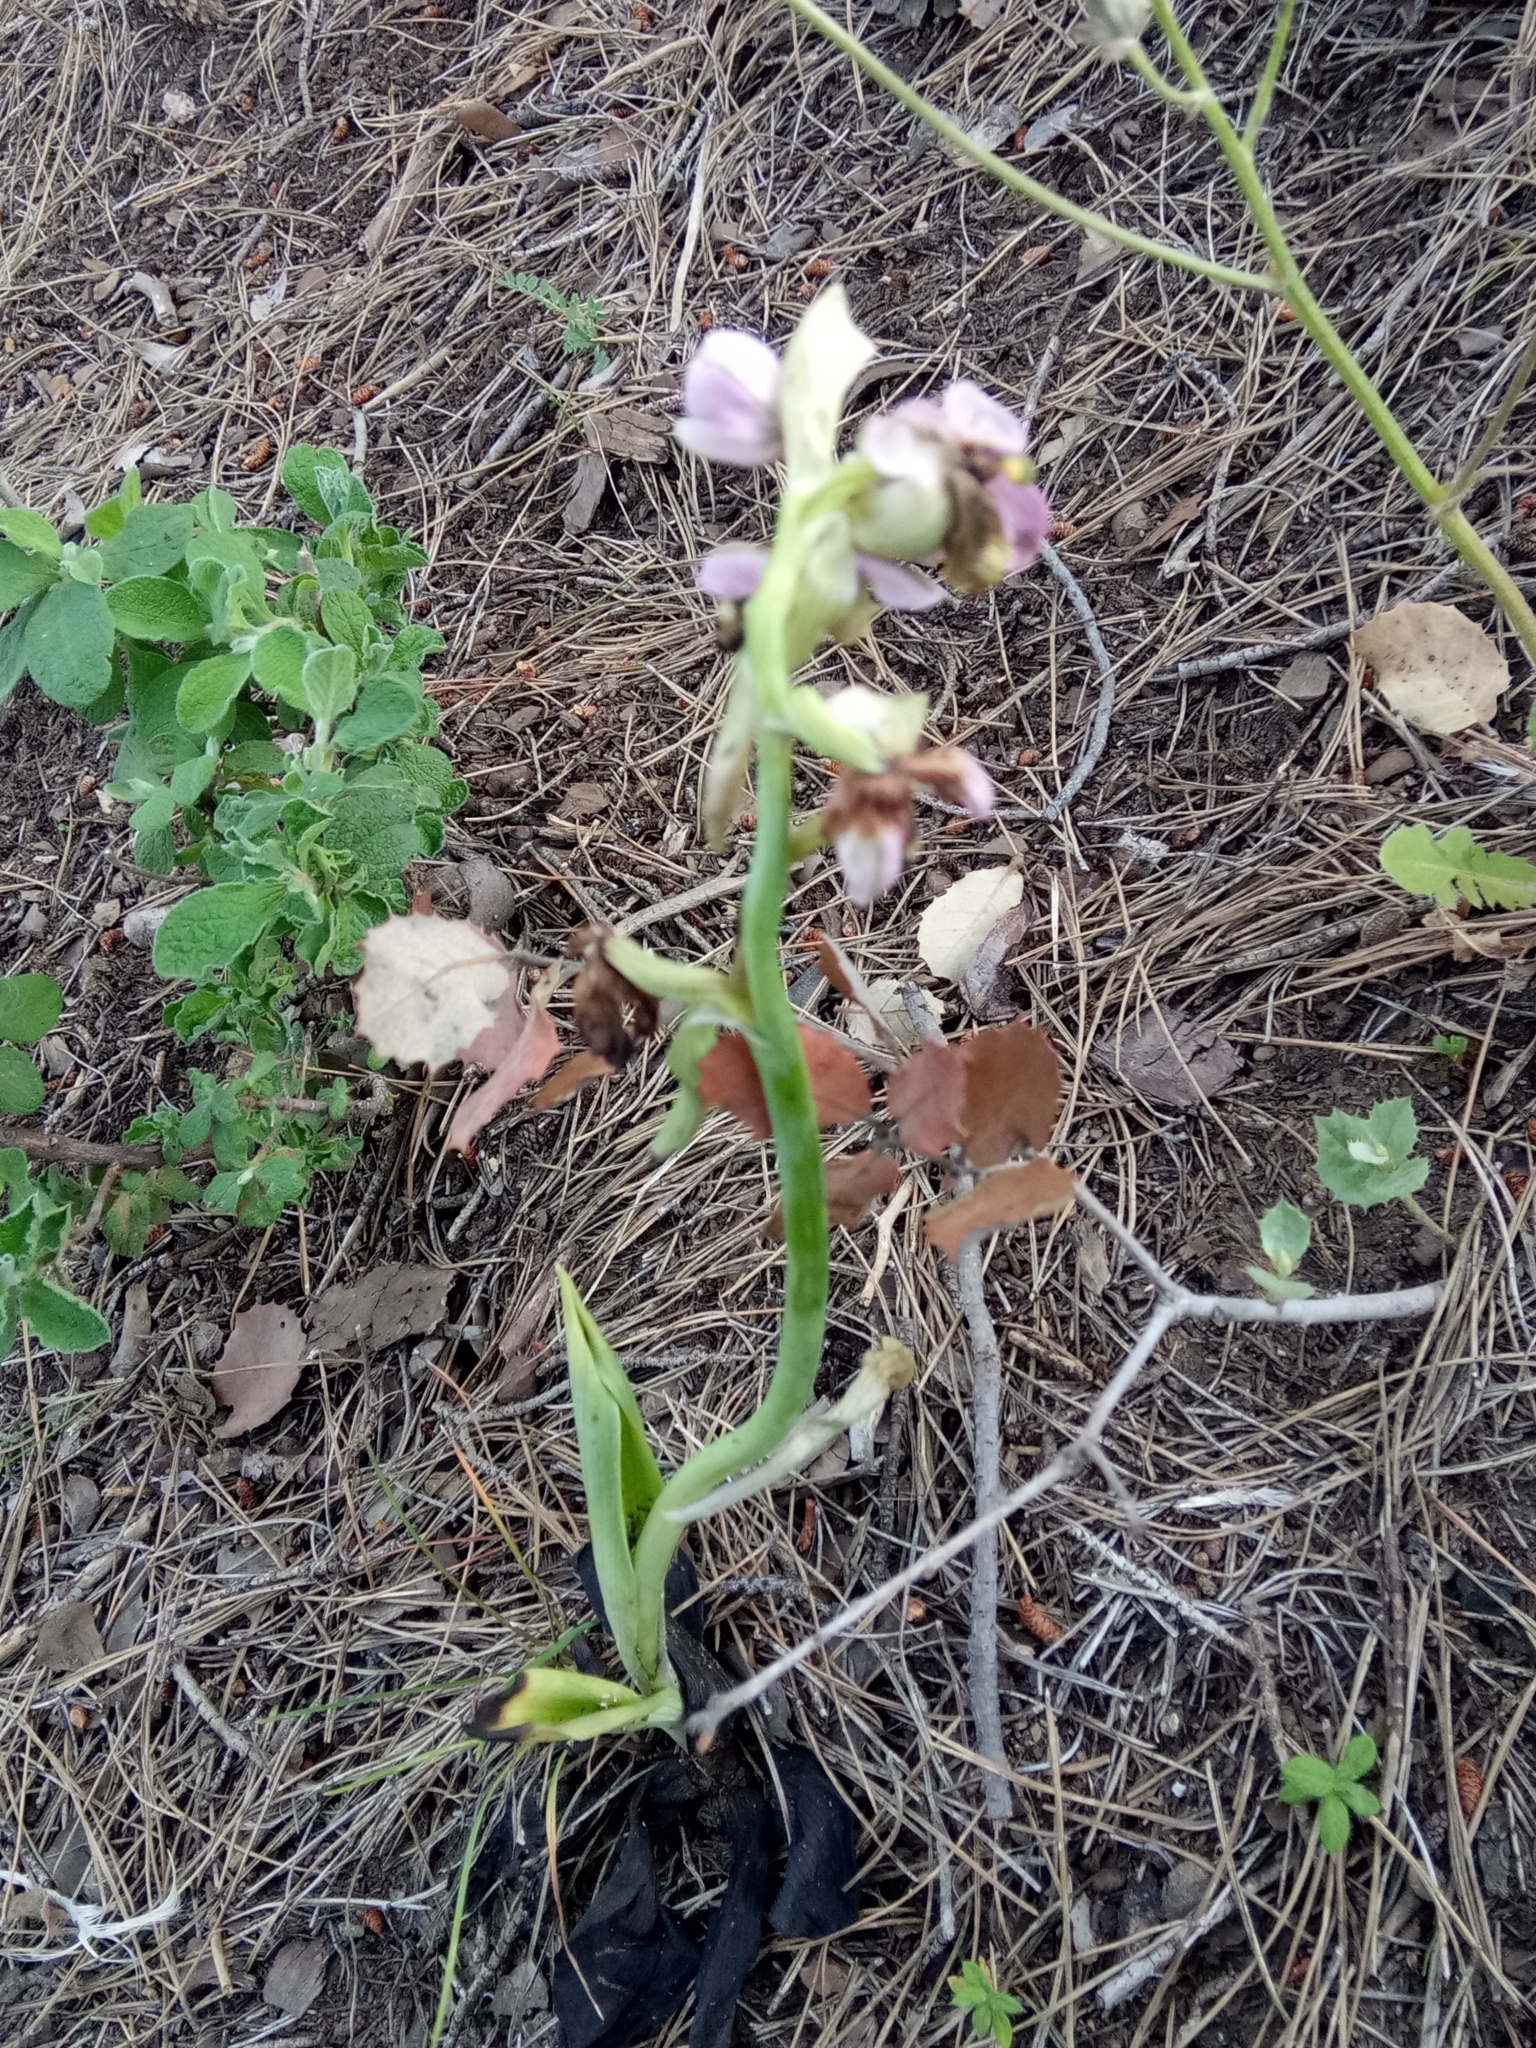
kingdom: Plantae
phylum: Tracheophyta
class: Liliopsida
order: Asparagales
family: Orchidaceae
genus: Ophrys
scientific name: Ophrys tenthredinifera
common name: Sawfly orchid
